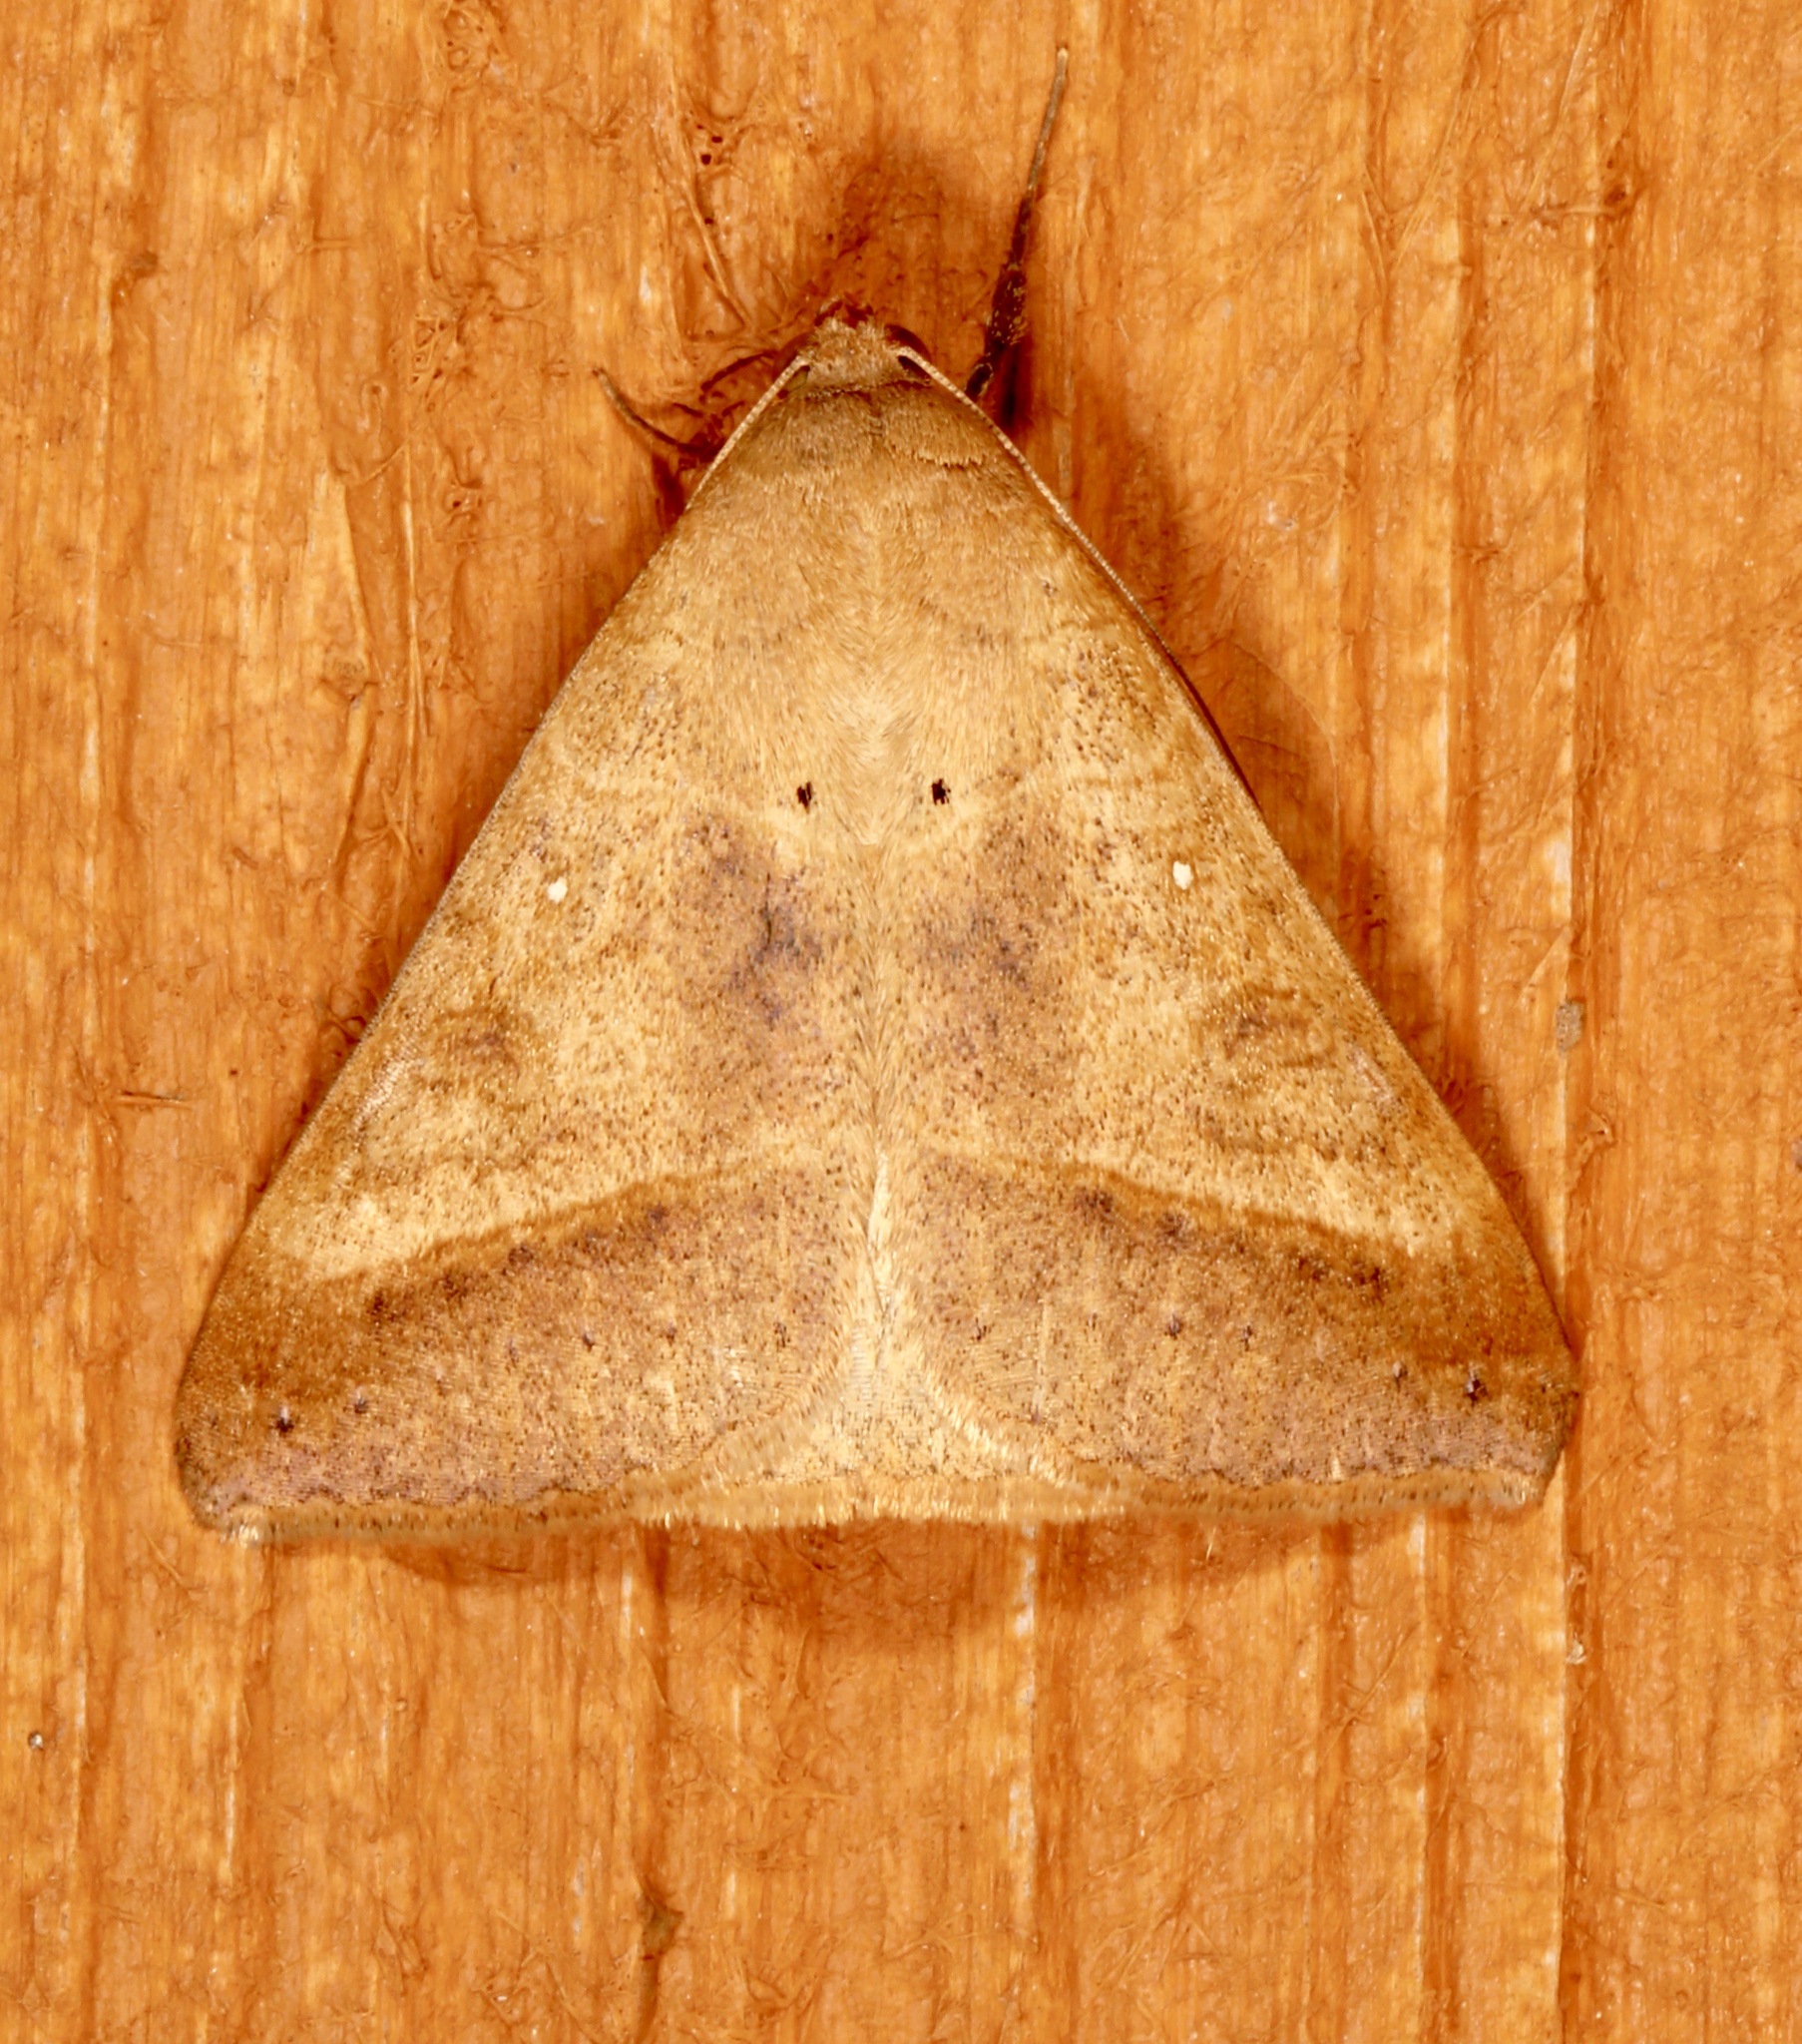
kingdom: Animalia
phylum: Arthropoda
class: Insecta
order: Lepidoptera
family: Erebidae
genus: Mocis
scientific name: Mocis disseverans
